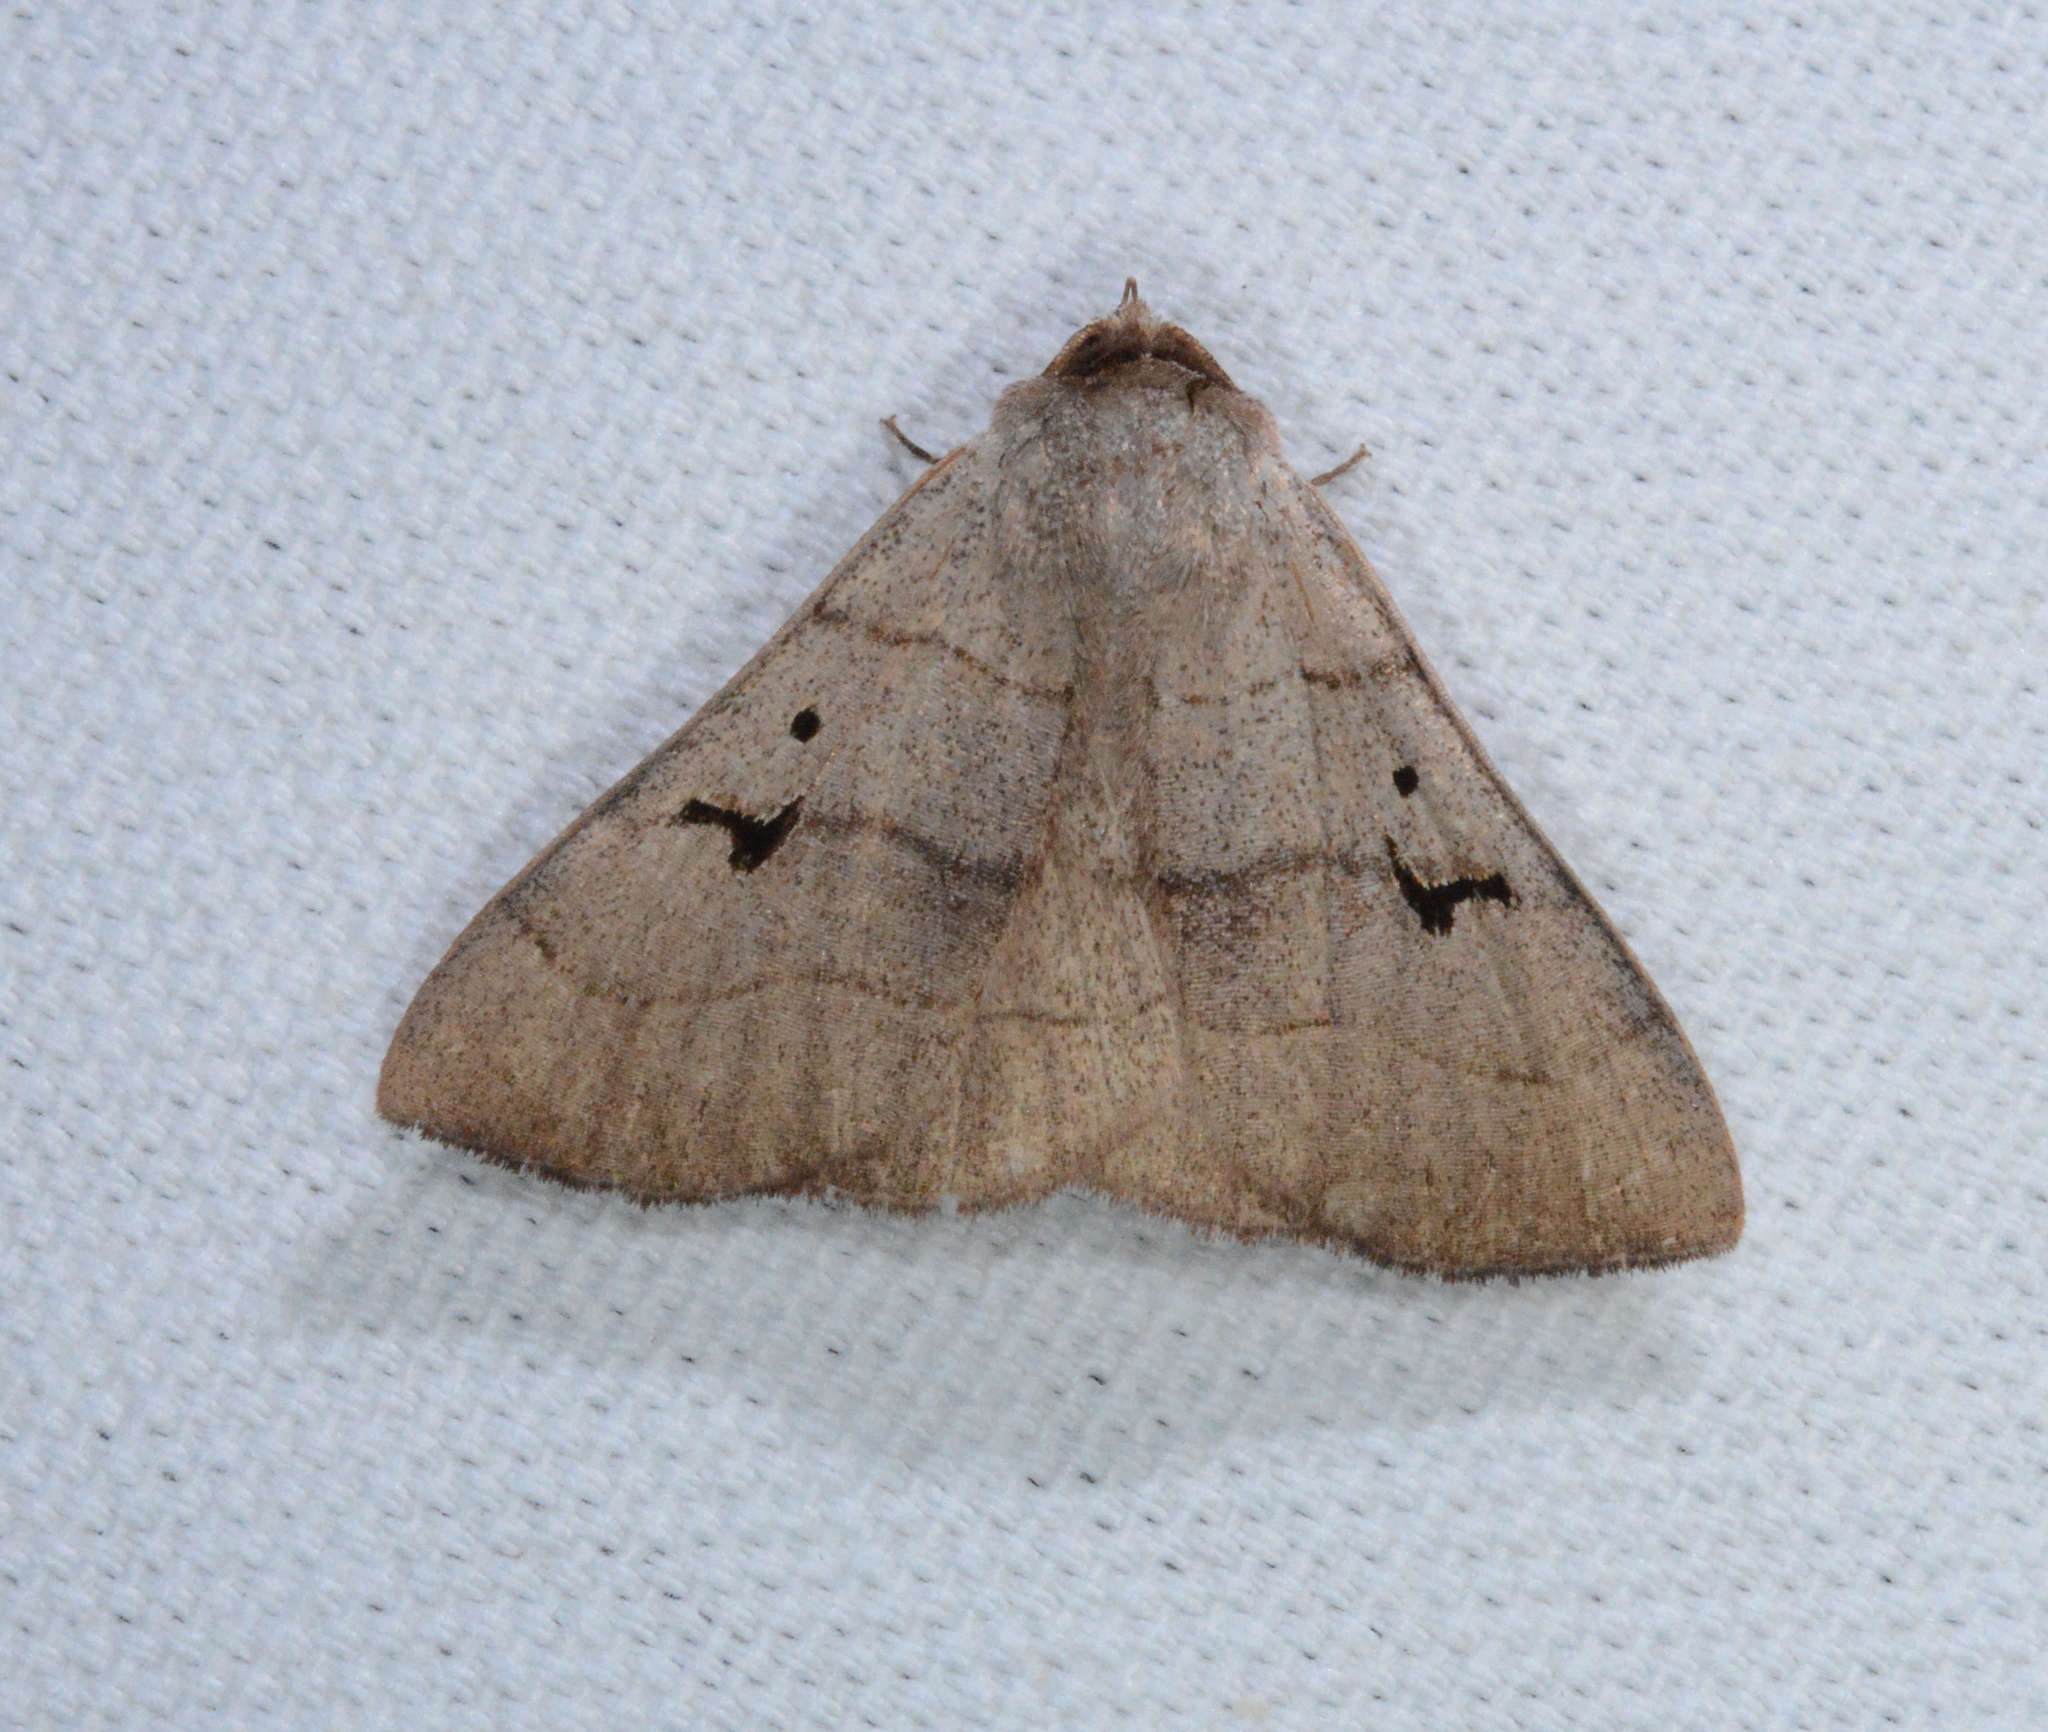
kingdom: Animalia
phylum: Arthropoda
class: Insecta
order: Lepidoptera
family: Erebidae
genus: Panopoda
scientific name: Panopoda carneicosta
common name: Brown panopoda moth
